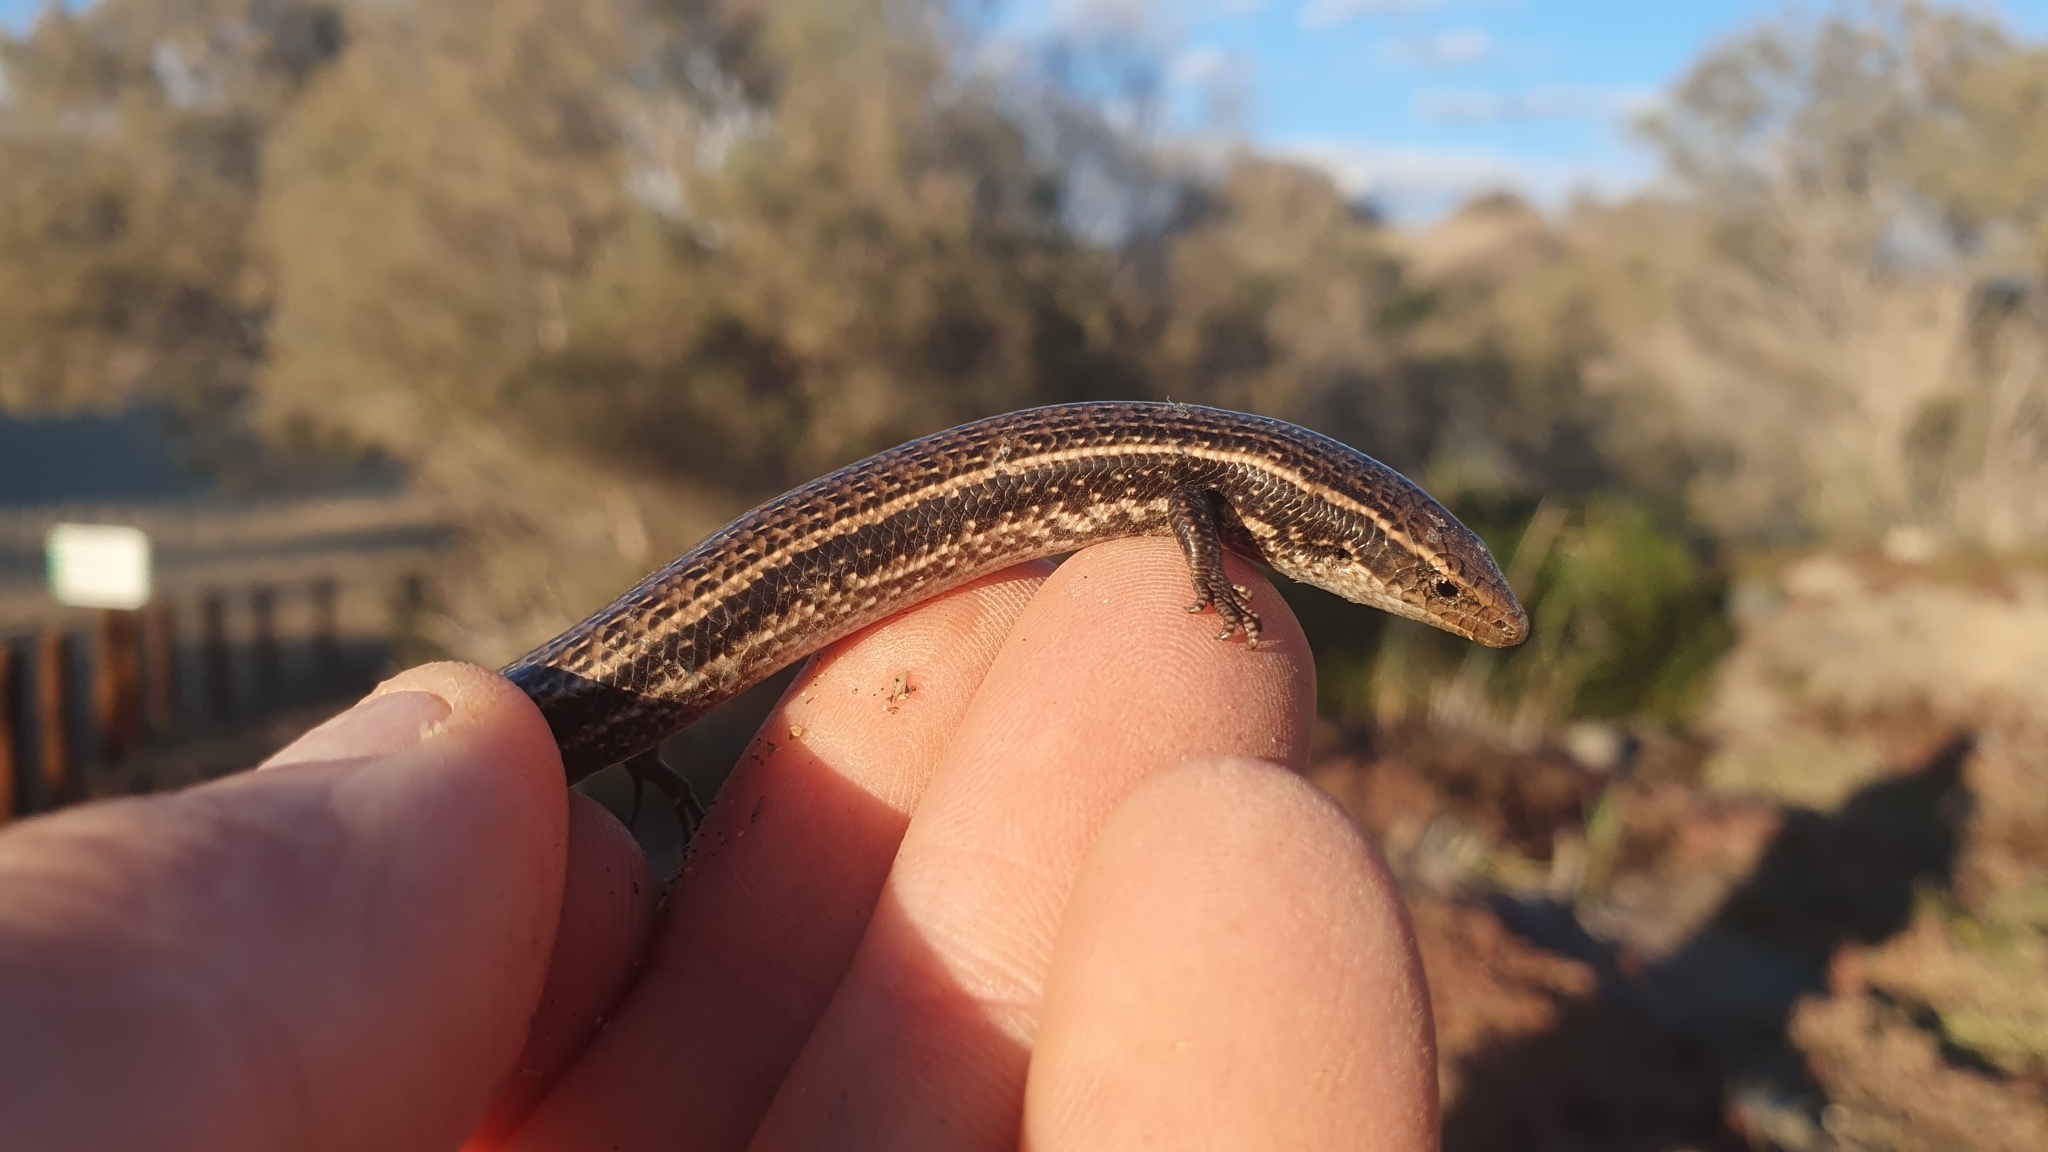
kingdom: Animalia
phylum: Chordata
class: Squamata
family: Scincidae
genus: Chalcides
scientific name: Chalcides sexlineatus
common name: Gran canaria skink
